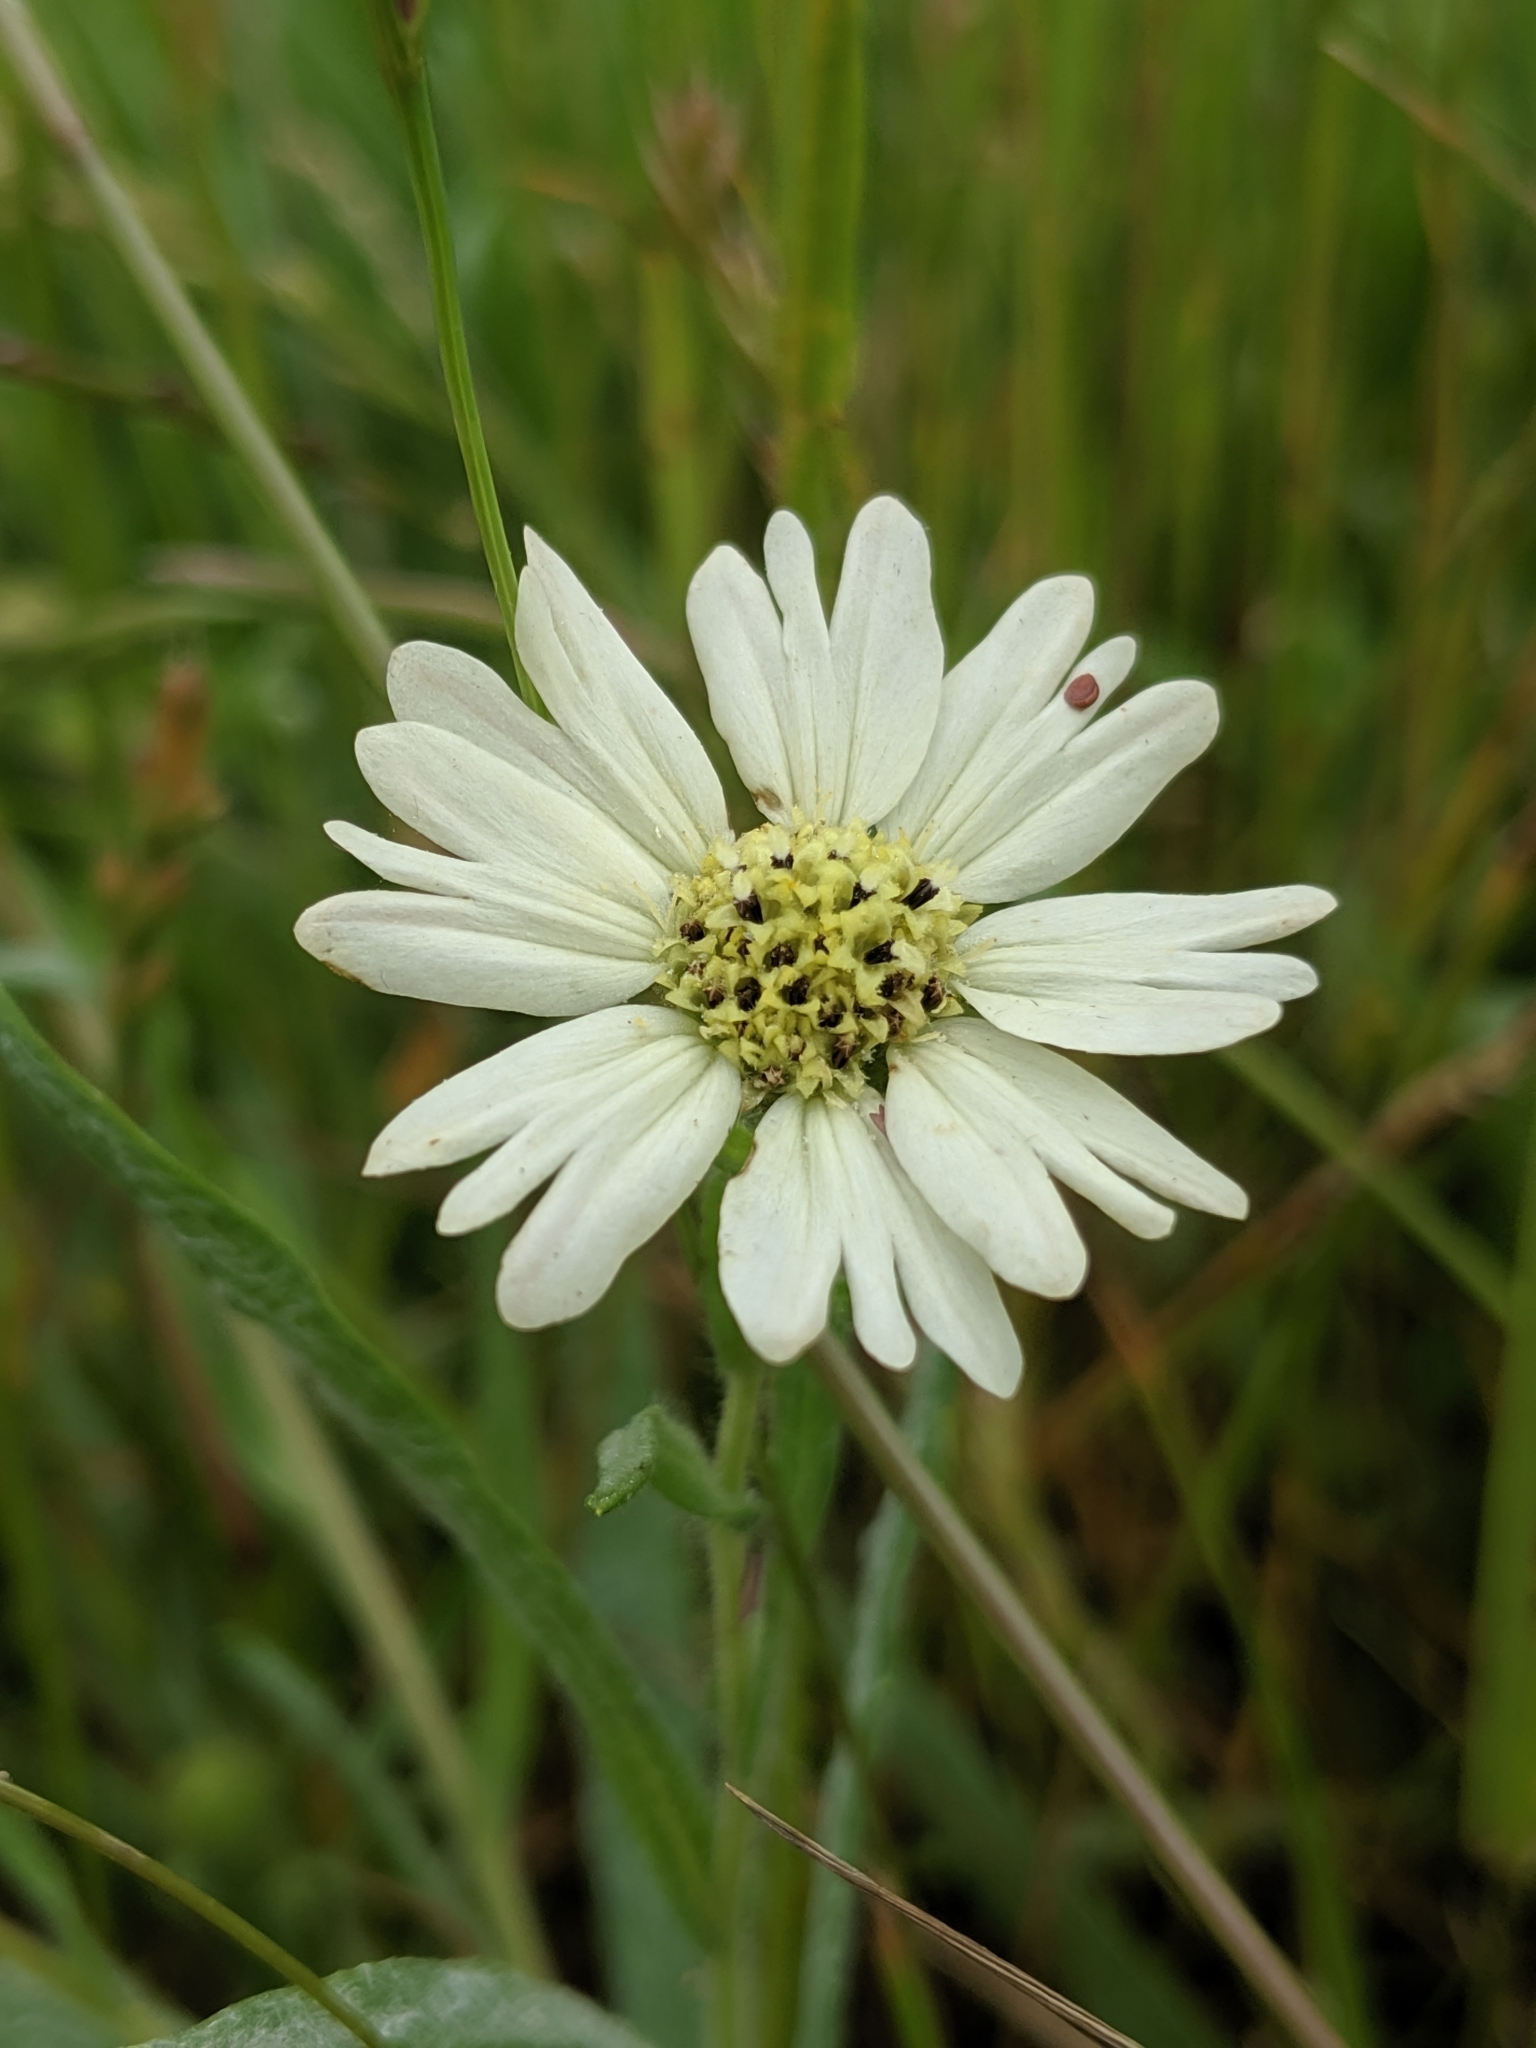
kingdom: Plantae
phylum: Tracheophyta
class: Magnoliopsida
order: Asterales
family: Asteraceae
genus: Hemizonia
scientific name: Hemizonia congesta
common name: Hayfield tarweed
